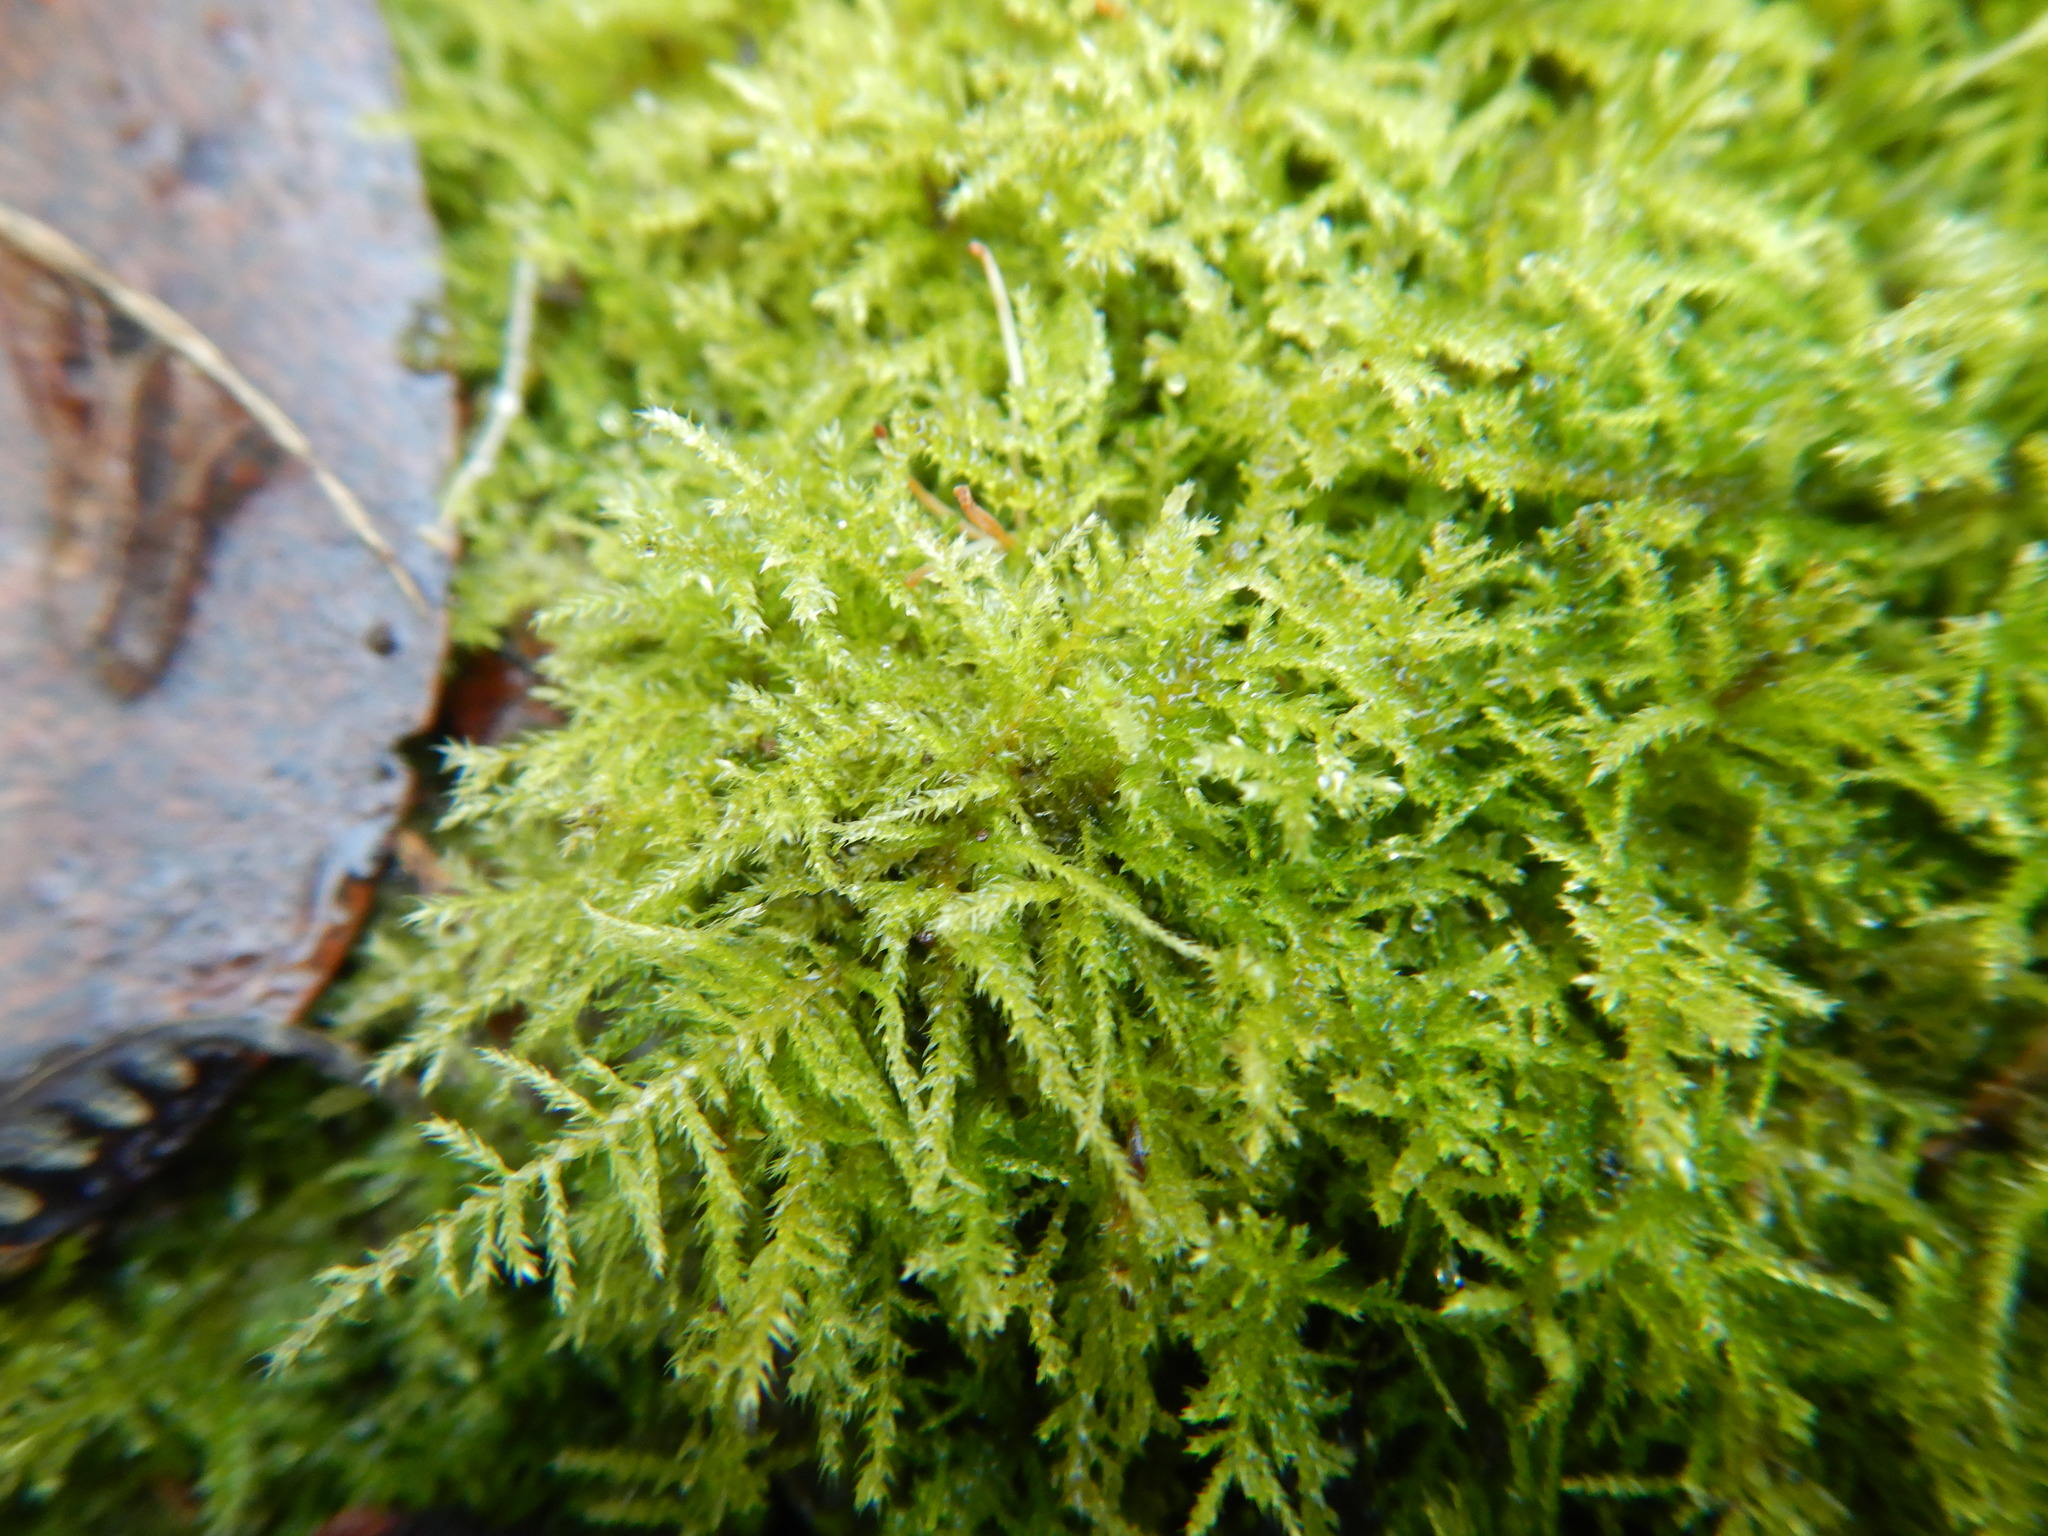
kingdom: Plantae
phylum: Bryophyta
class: Bryopsida
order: Hypnales
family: Brachytheciaceae
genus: Kindbergia
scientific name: Kindbergia praelonga
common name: Slender beaked moss
